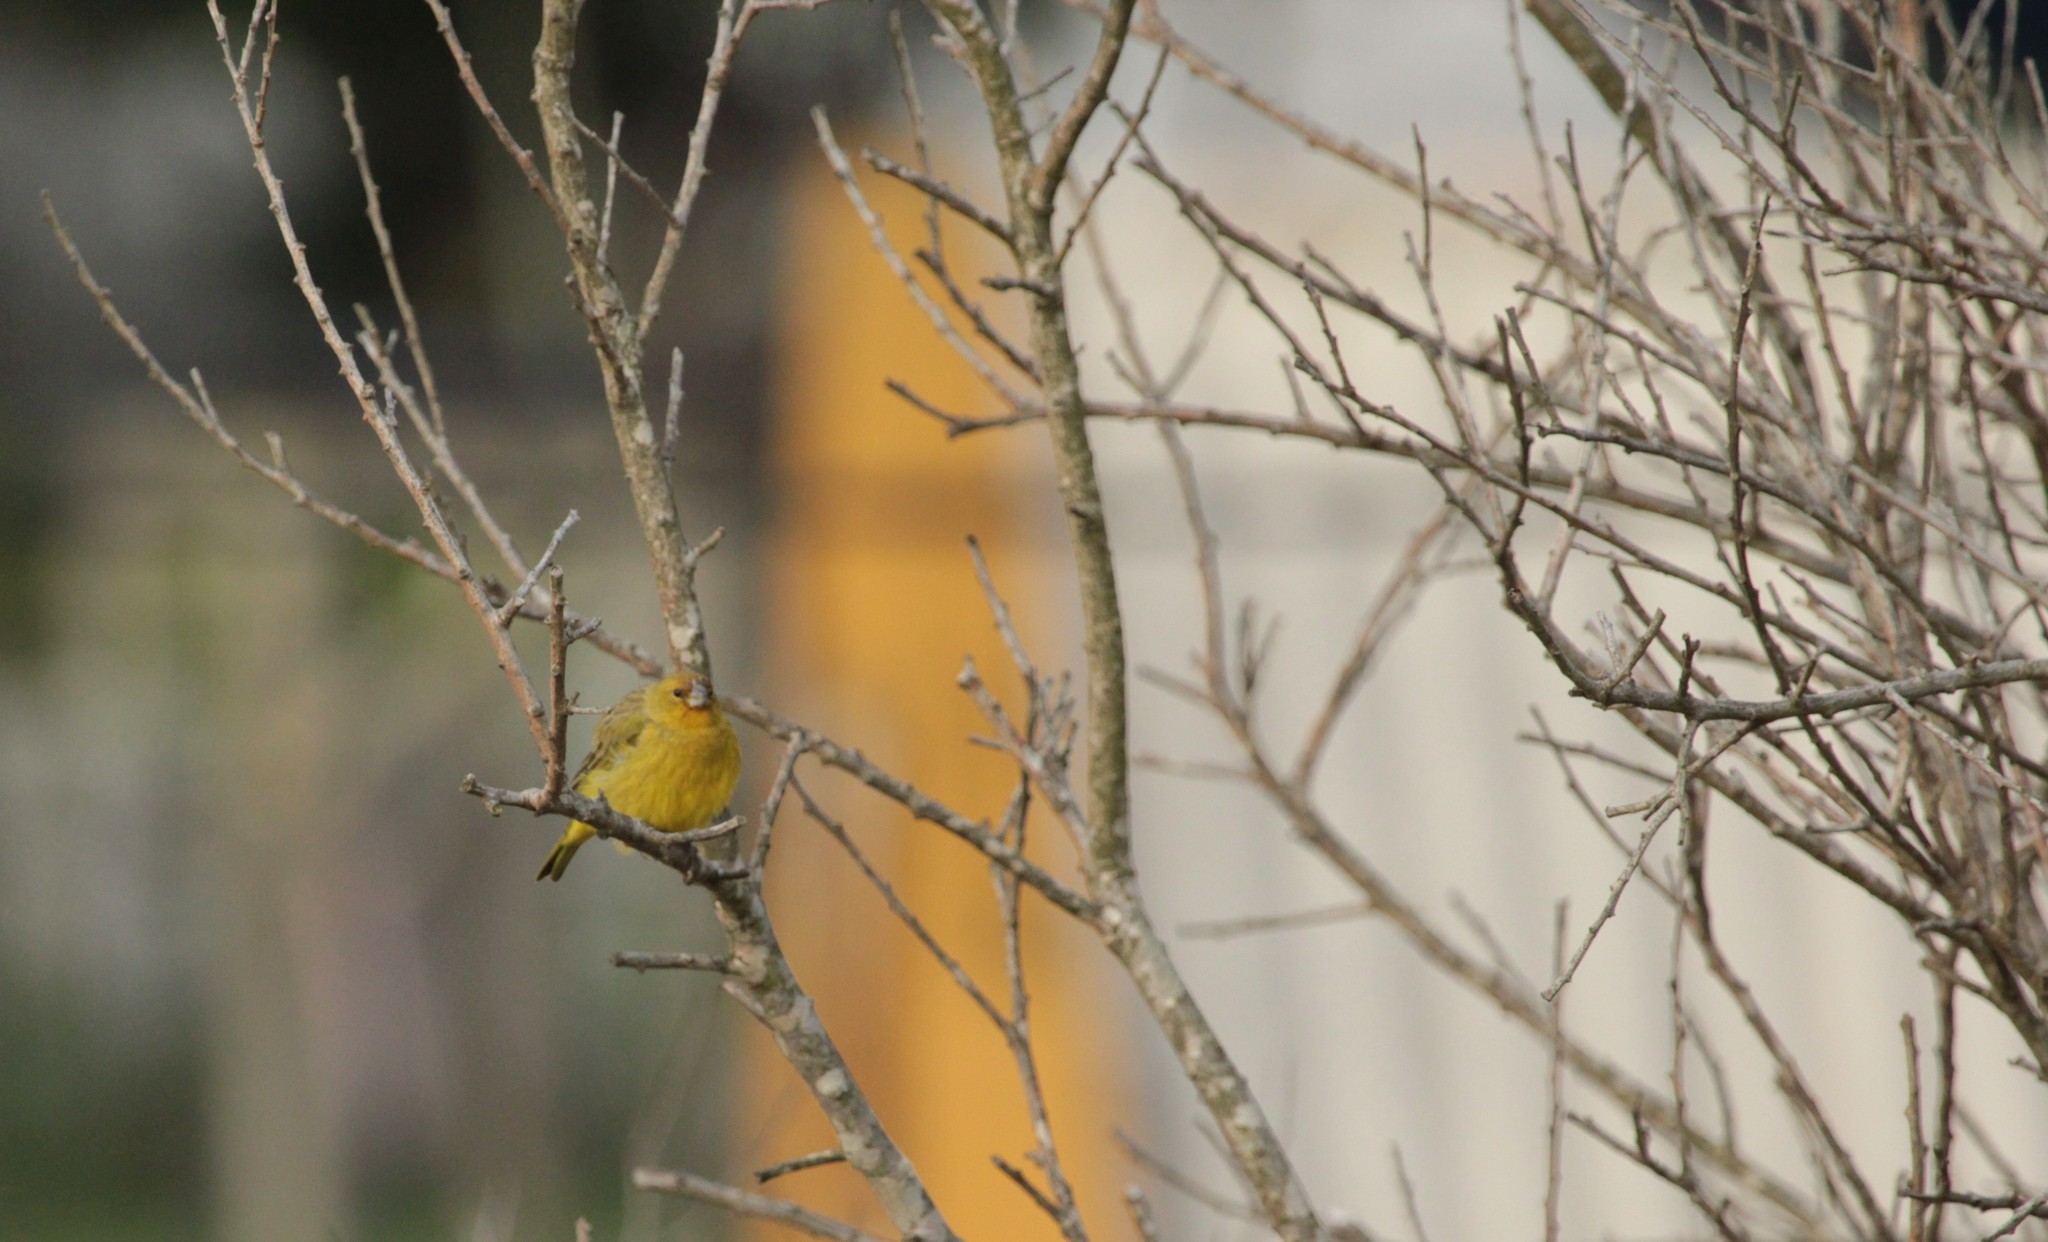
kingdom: Animalia
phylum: Chordata
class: Aves
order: Passeriformes
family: Thraupidae
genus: Sicalis
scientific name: Sicalis flaveola
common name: Saffron finch
